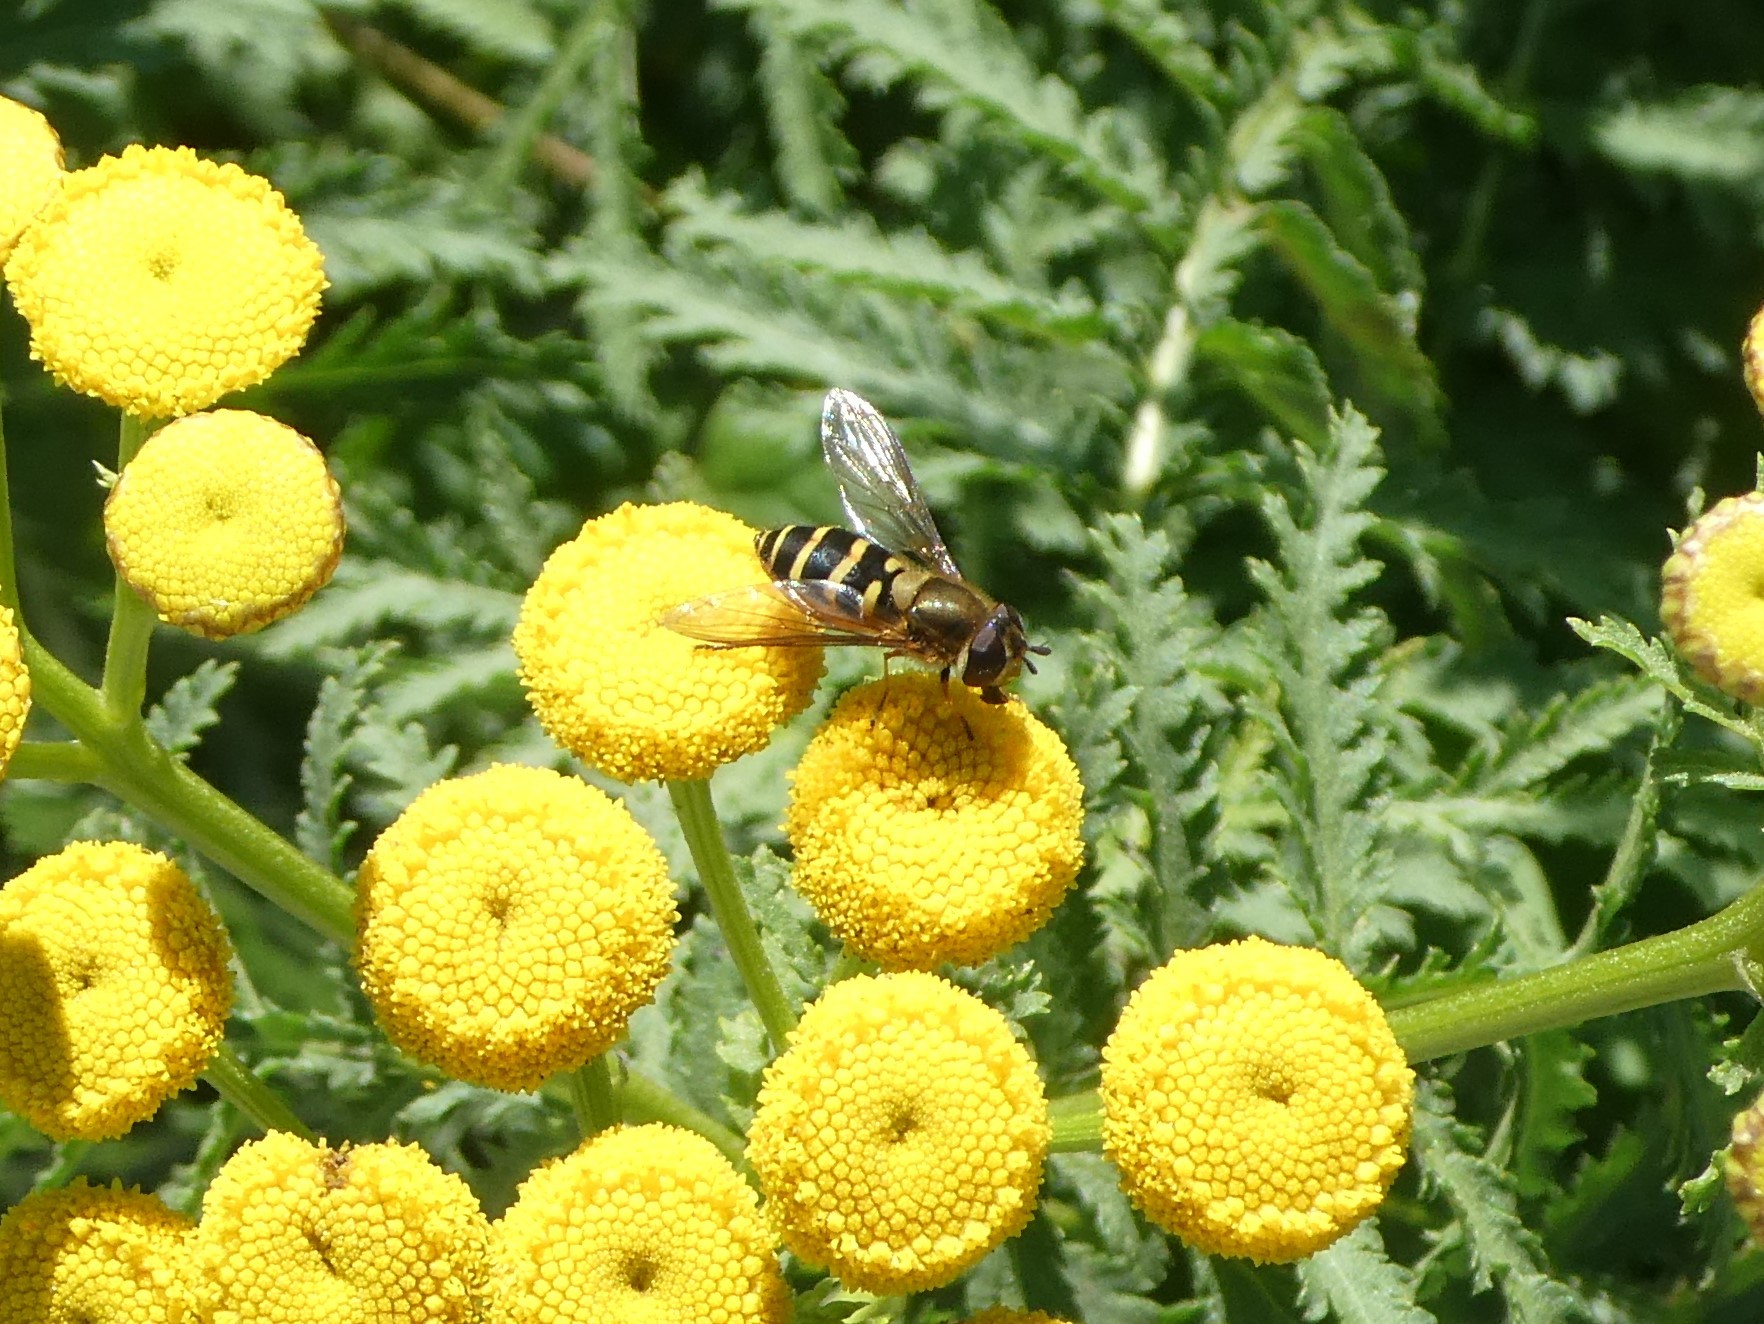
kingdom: Animalia
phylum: Arthropoda
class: Insecta
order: Diptera
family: Syrphidae
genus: Syrphus
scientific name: Syrphus torvus
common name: Hairy-eyed flower fly
